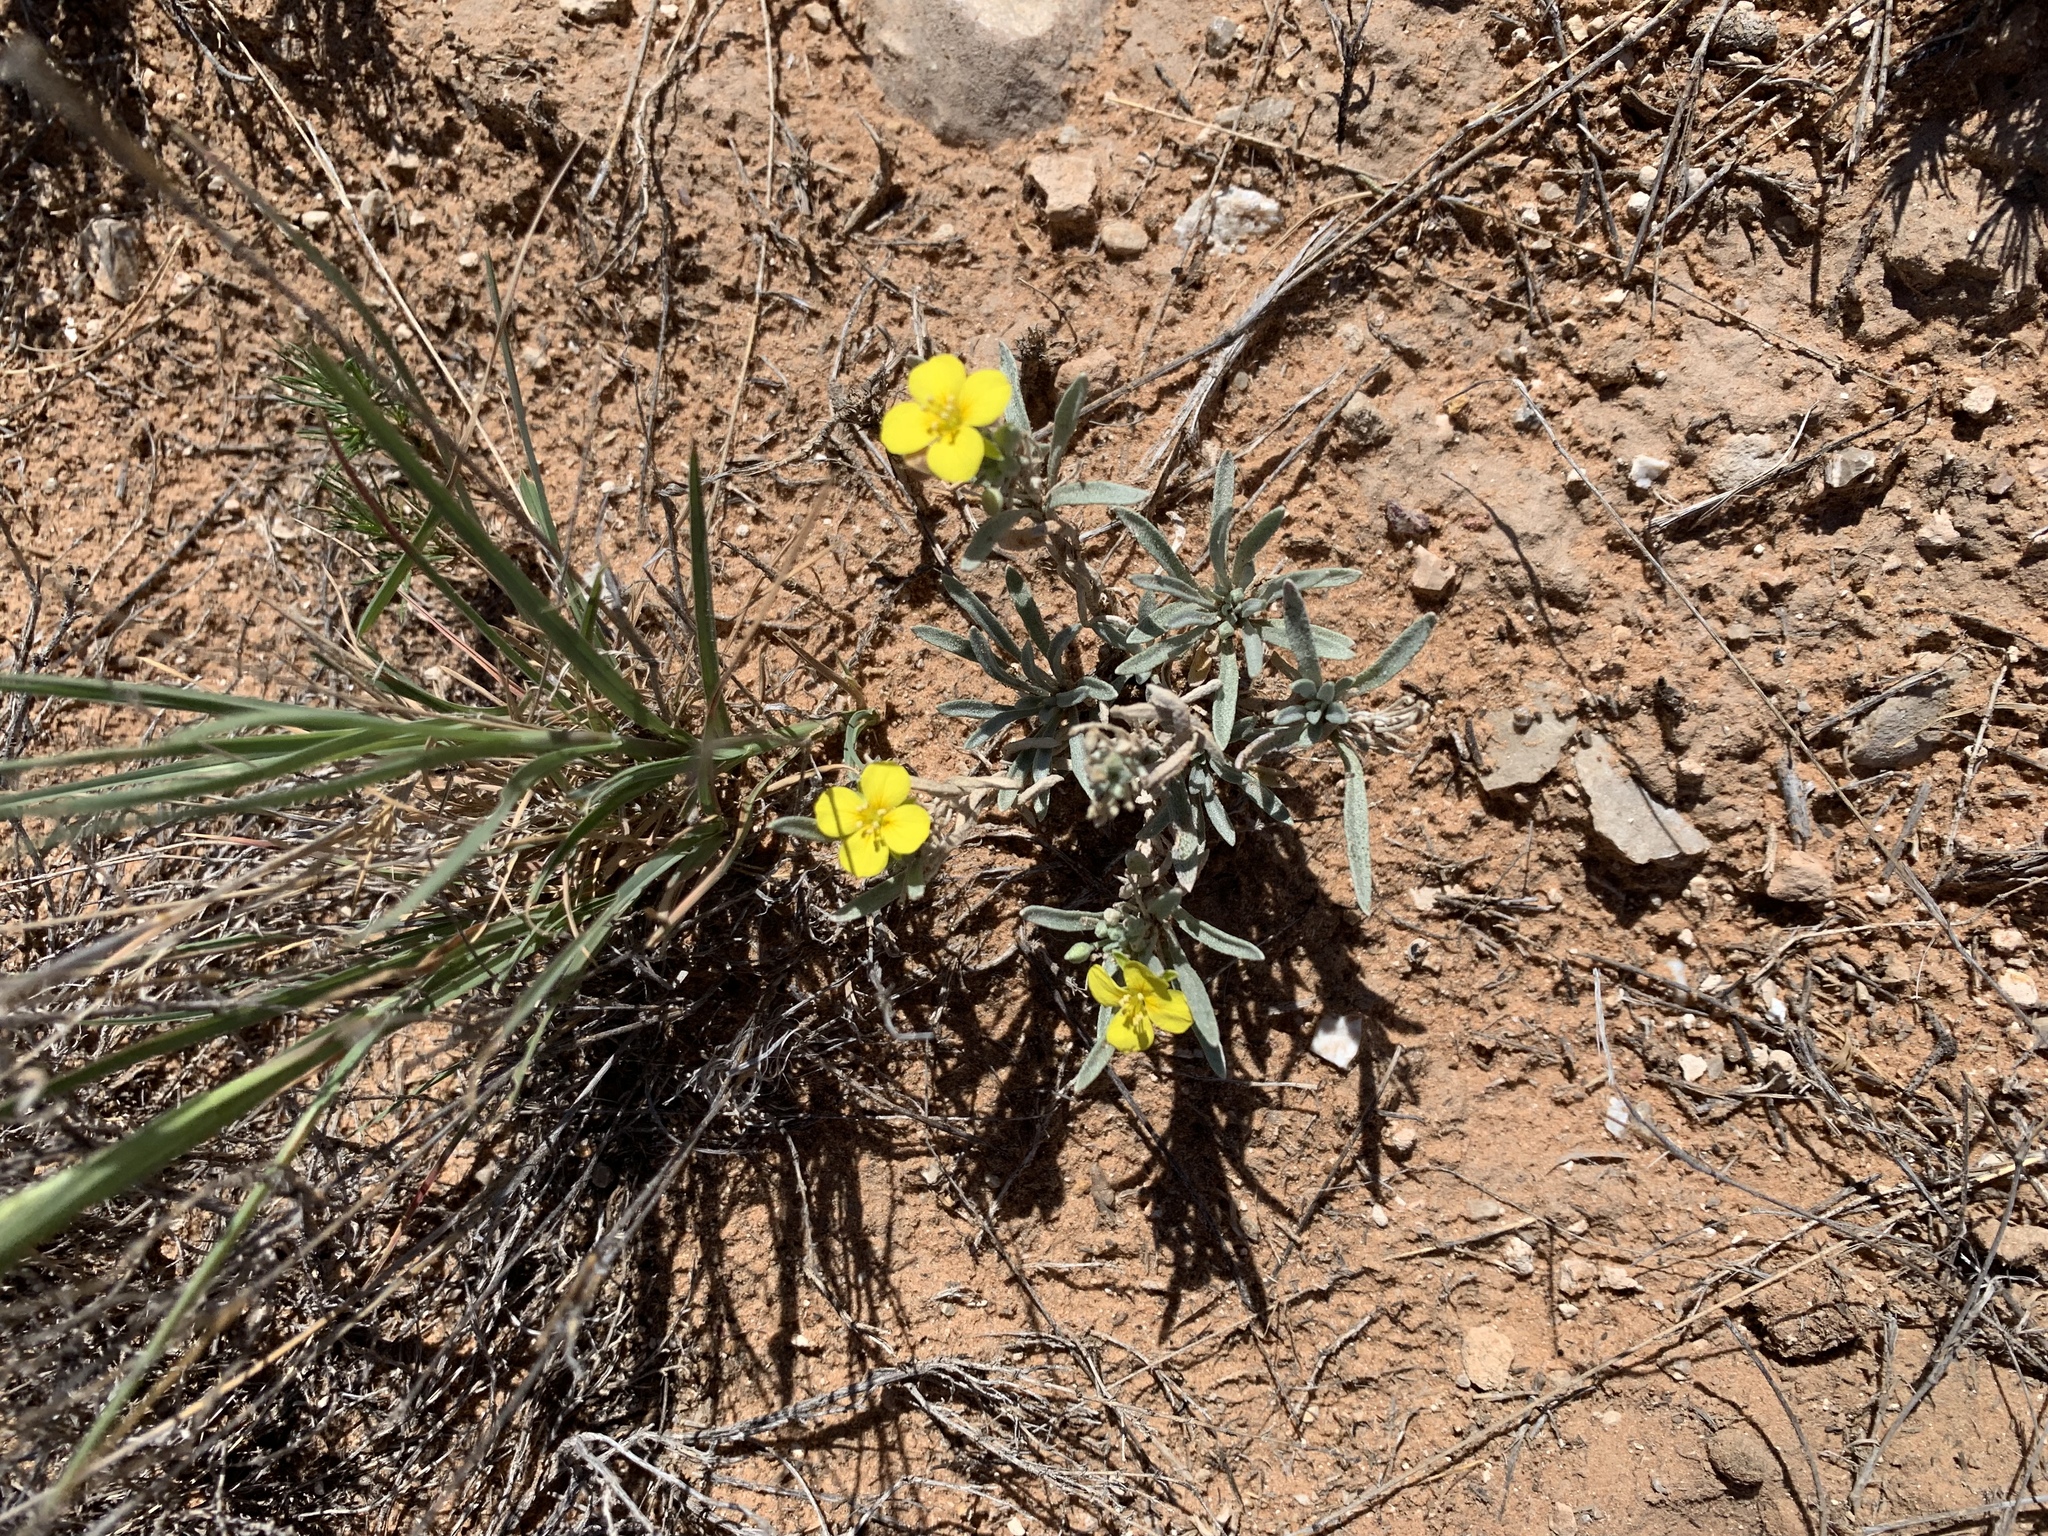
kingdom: Plantae
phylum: Tracheophyta
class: Magnoliopsida
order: Brassicales
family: Brassicaceae
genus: Physaria
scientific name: Physaria fendleri
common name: Fendler's bladderpod
